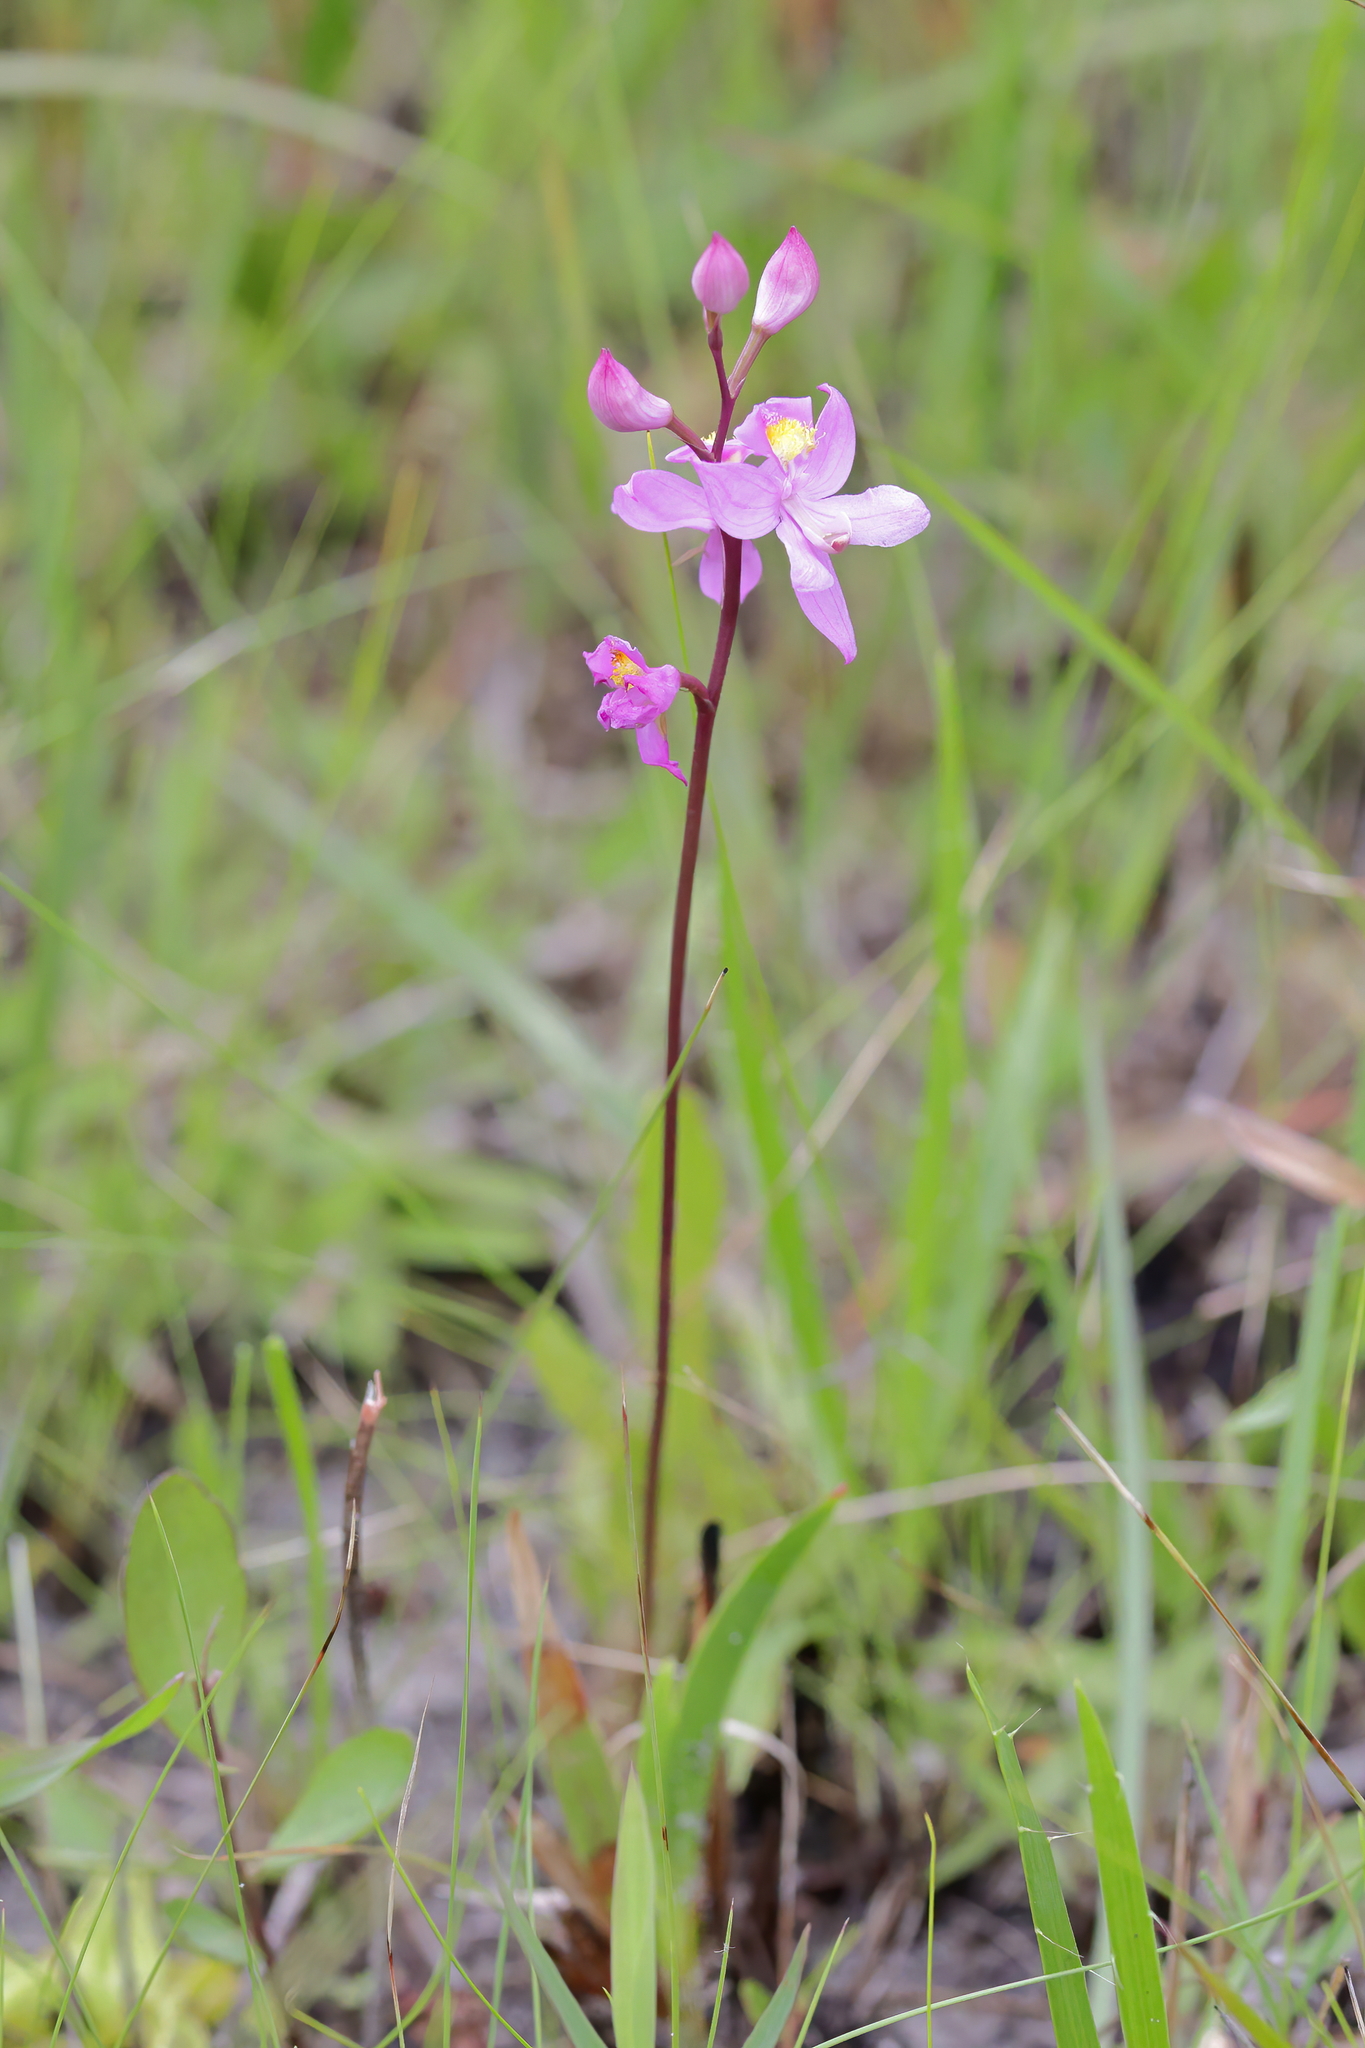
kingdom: Plantae
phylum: Tracheophyta
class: Liliopsida
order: Asparagales
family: Orchidaceae
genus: Calopogon
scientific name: Calopogon multiflorus
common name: Many-flowered grass-pink orchid
